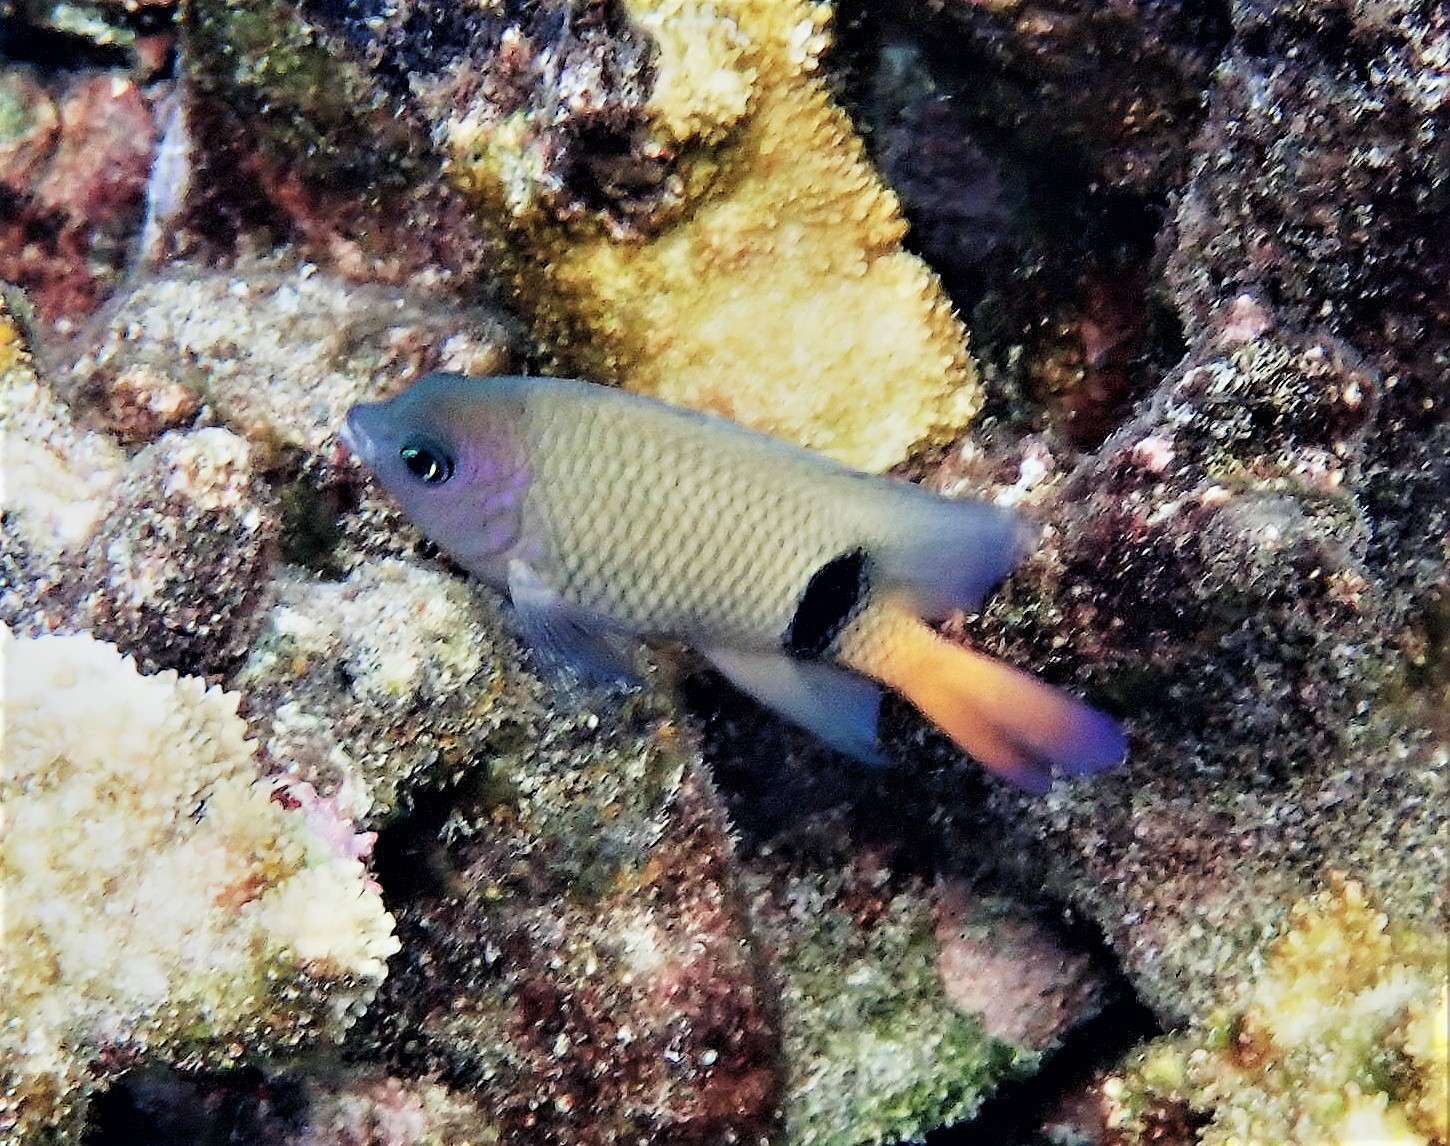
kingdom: Animalia
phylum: Chordata
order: Perciformes
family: Pomacentridae
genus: Plectroglyphidodon
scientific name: Plectroglyphidodon dickii
